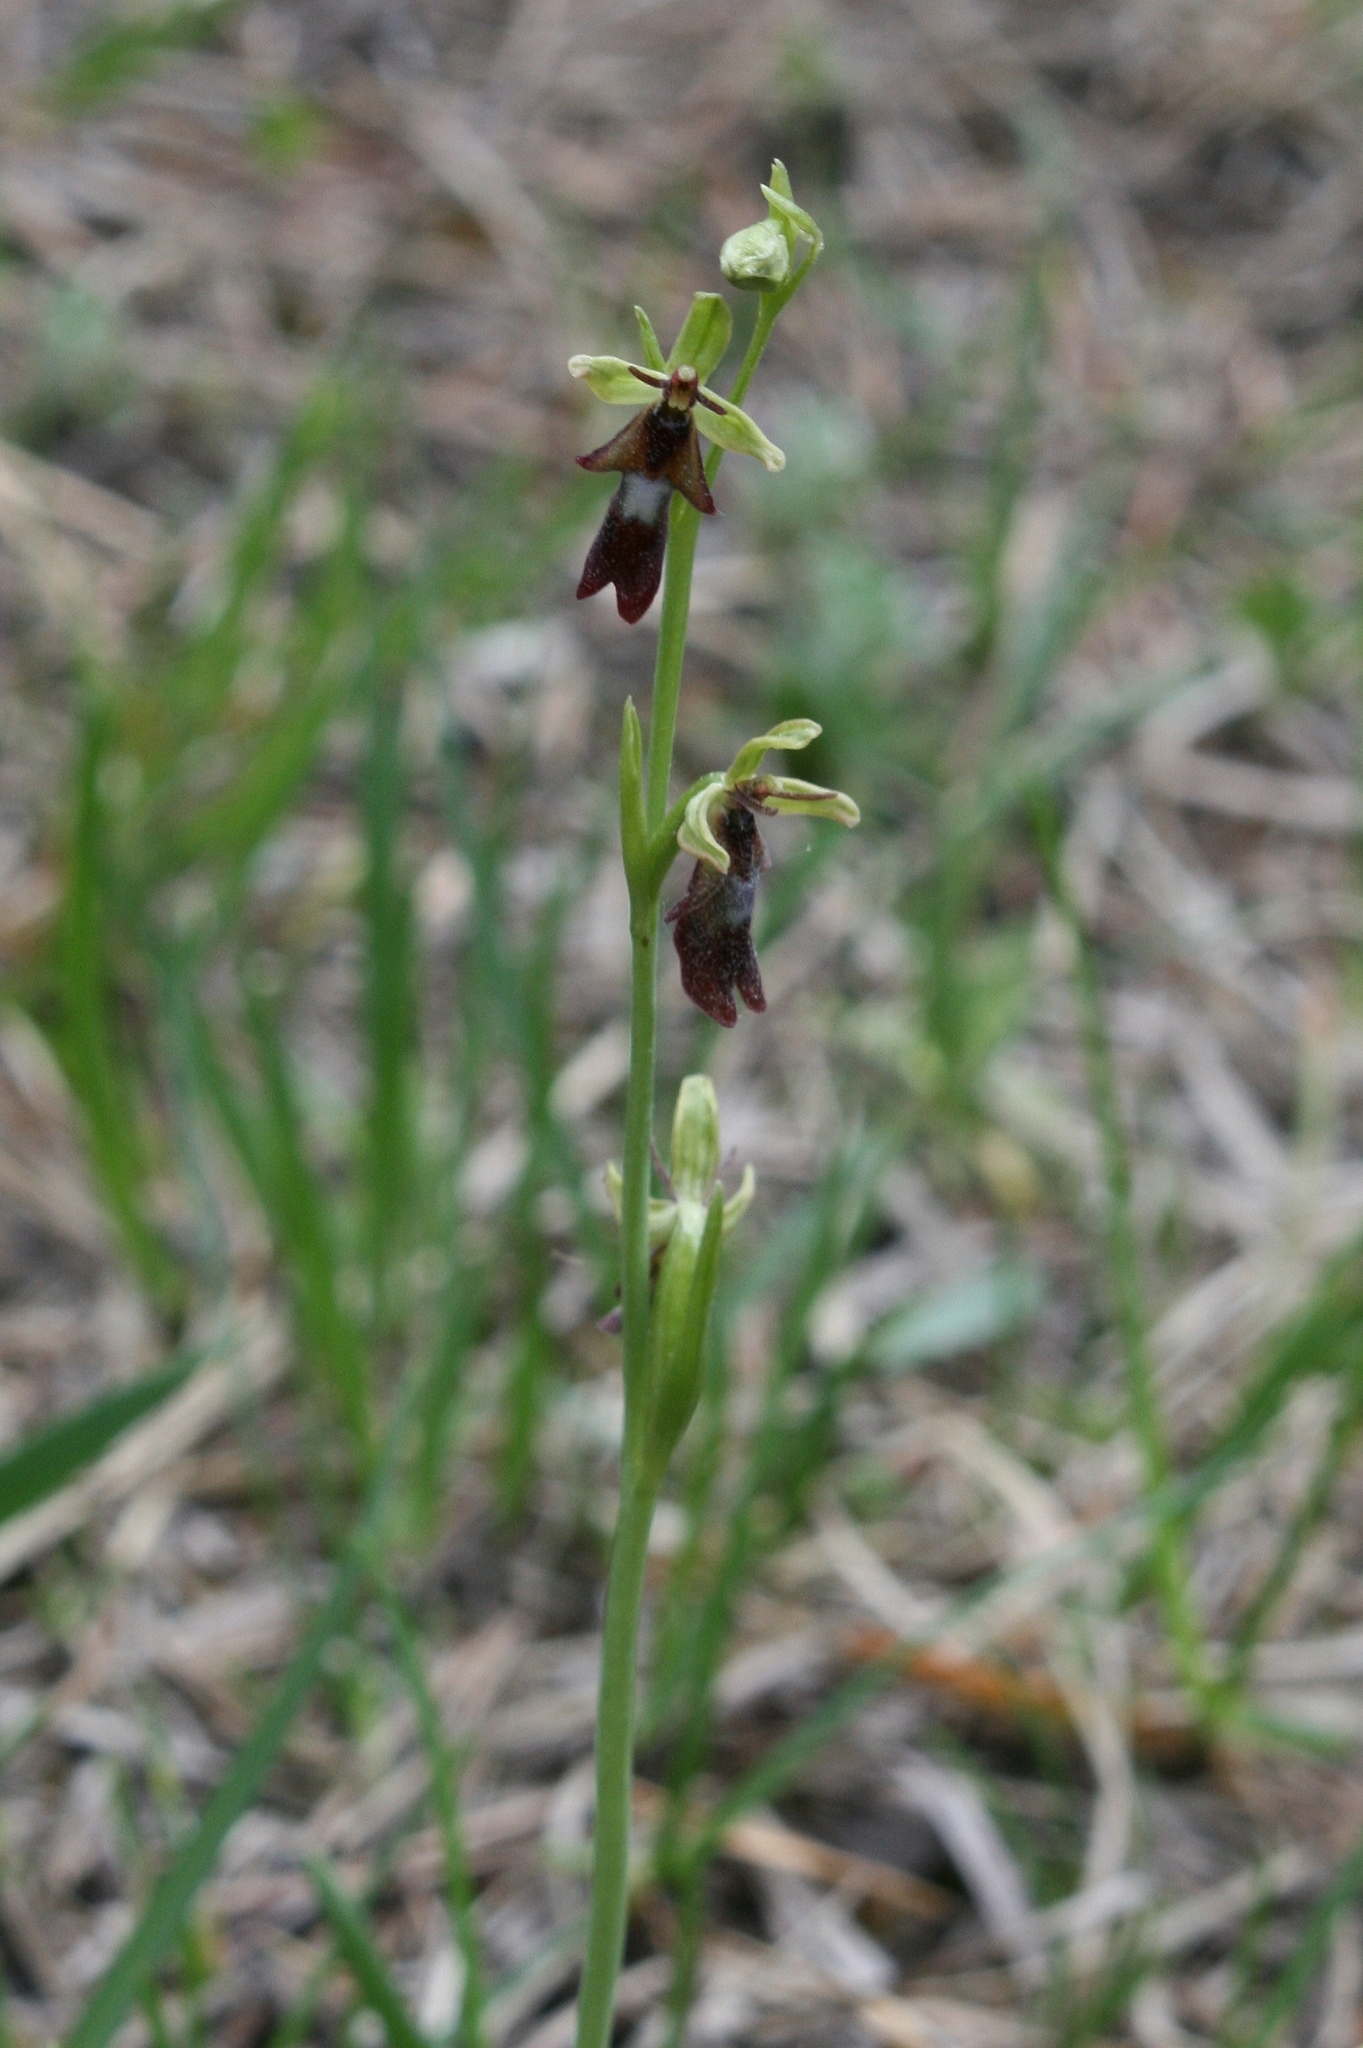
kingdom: Plantae
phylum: Tracheophyta
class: Liliopsida
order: Asparagales
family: Orchidaceae
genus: Ophrys
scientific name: Ophrys insectifera
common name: Fly orchid
